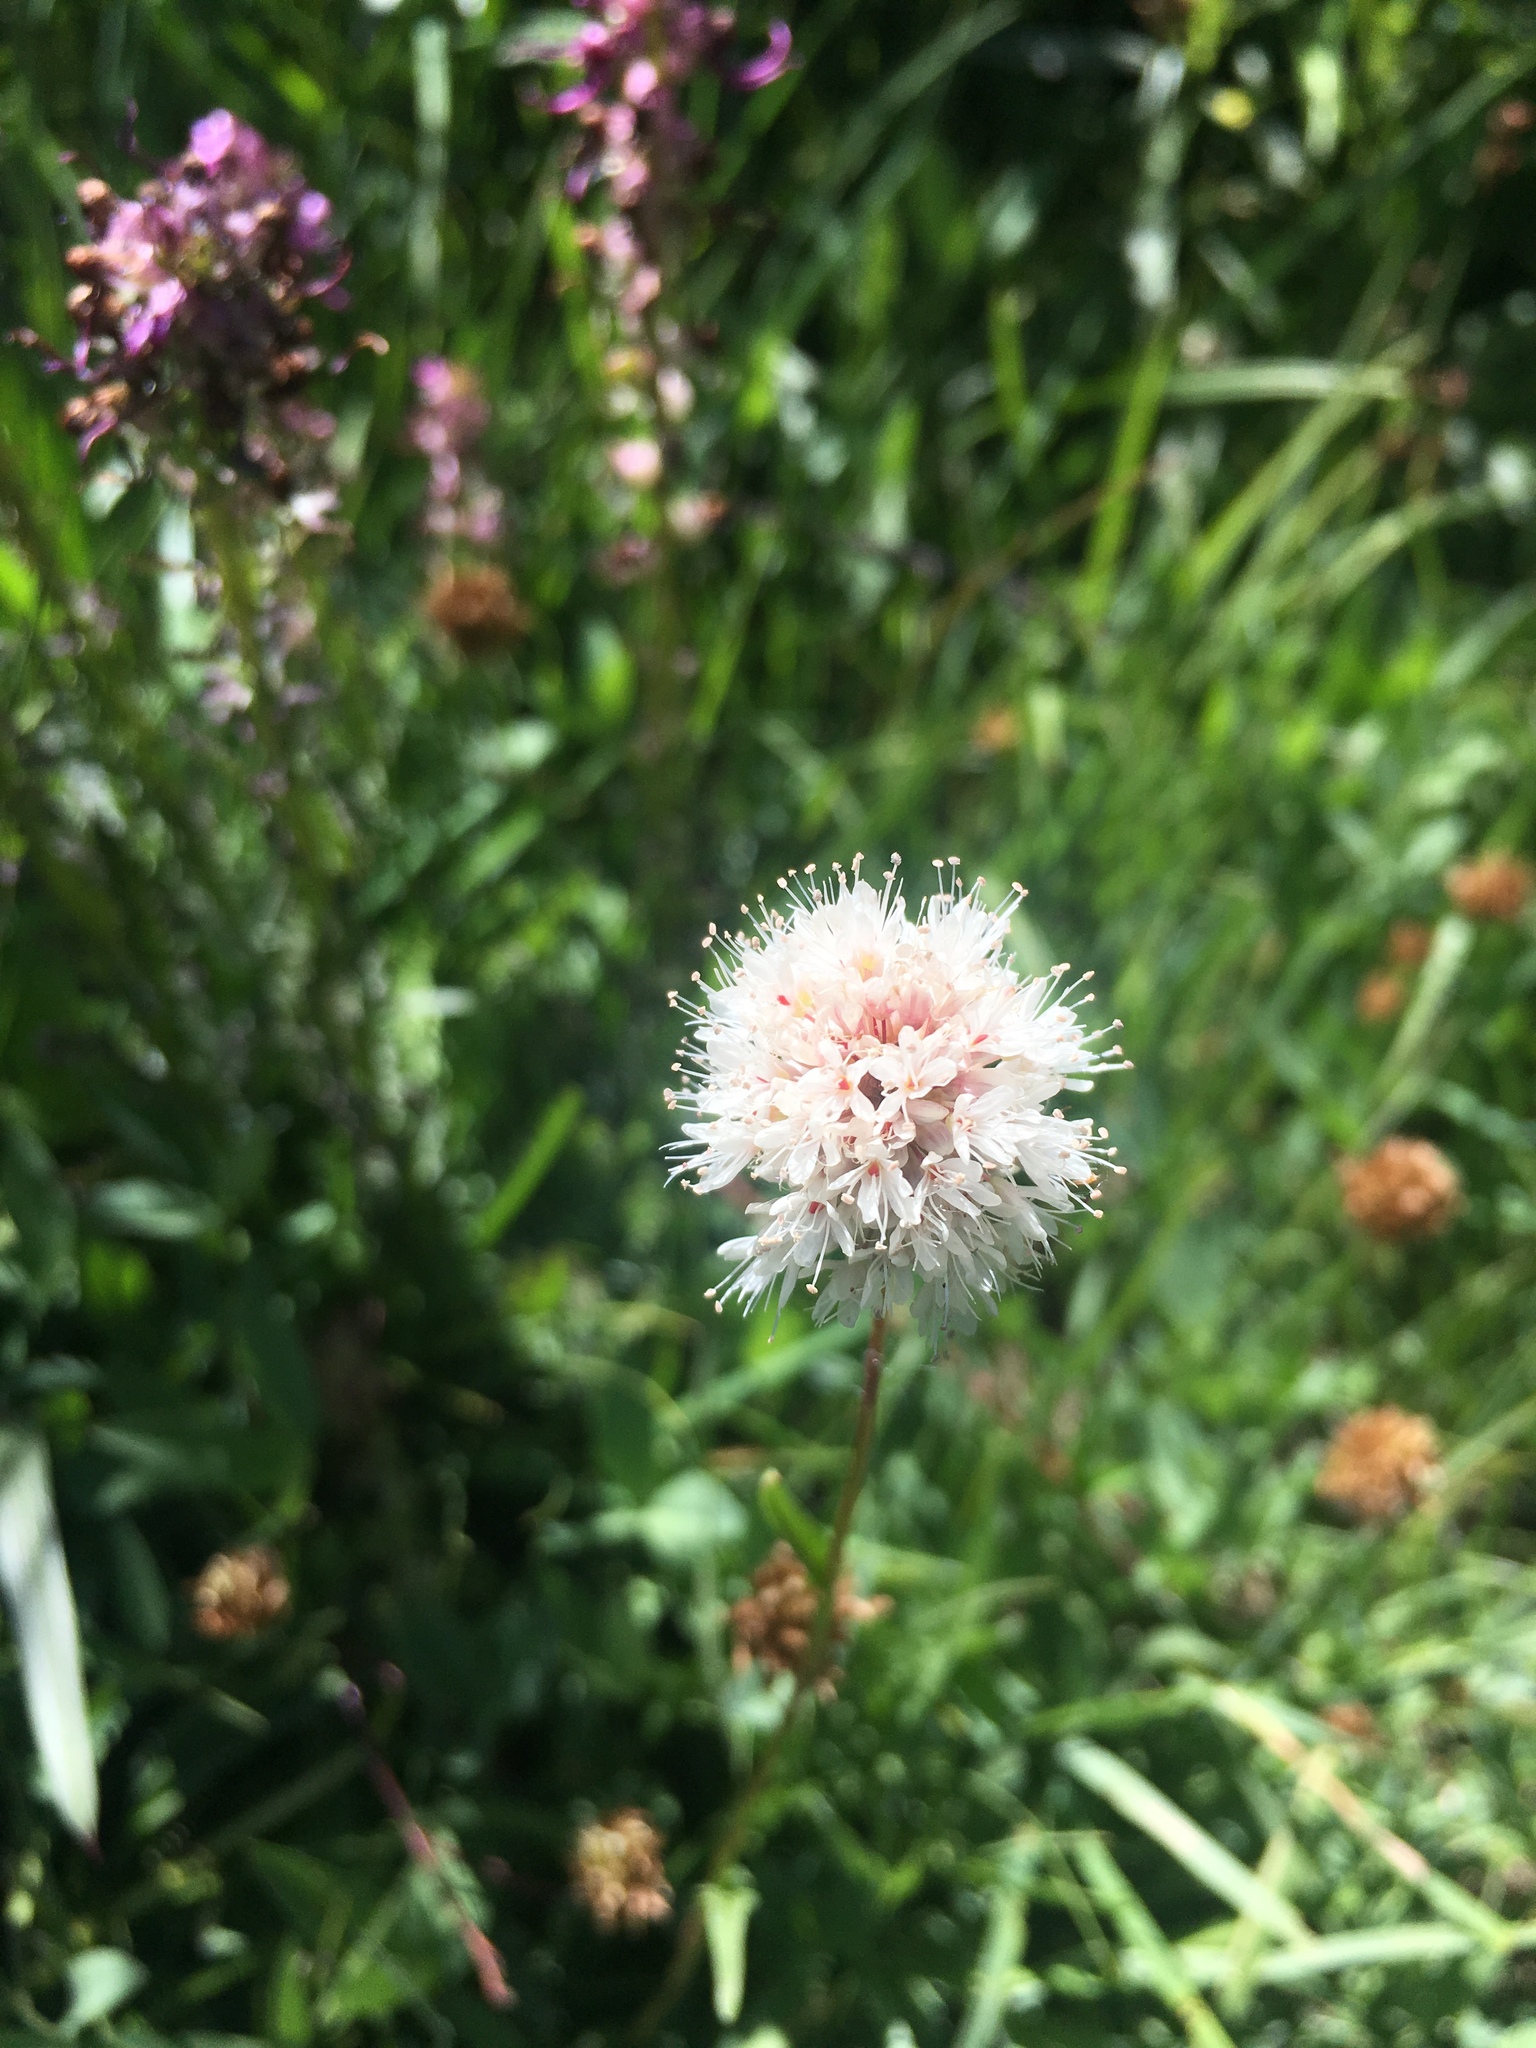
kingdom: Plantae
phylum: Tracheophyta
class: Magnoliopsida
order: Caryophyllales
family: Polygonaceae
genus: Bistorta
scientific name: Bistorta bistortoides
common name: American bistort
